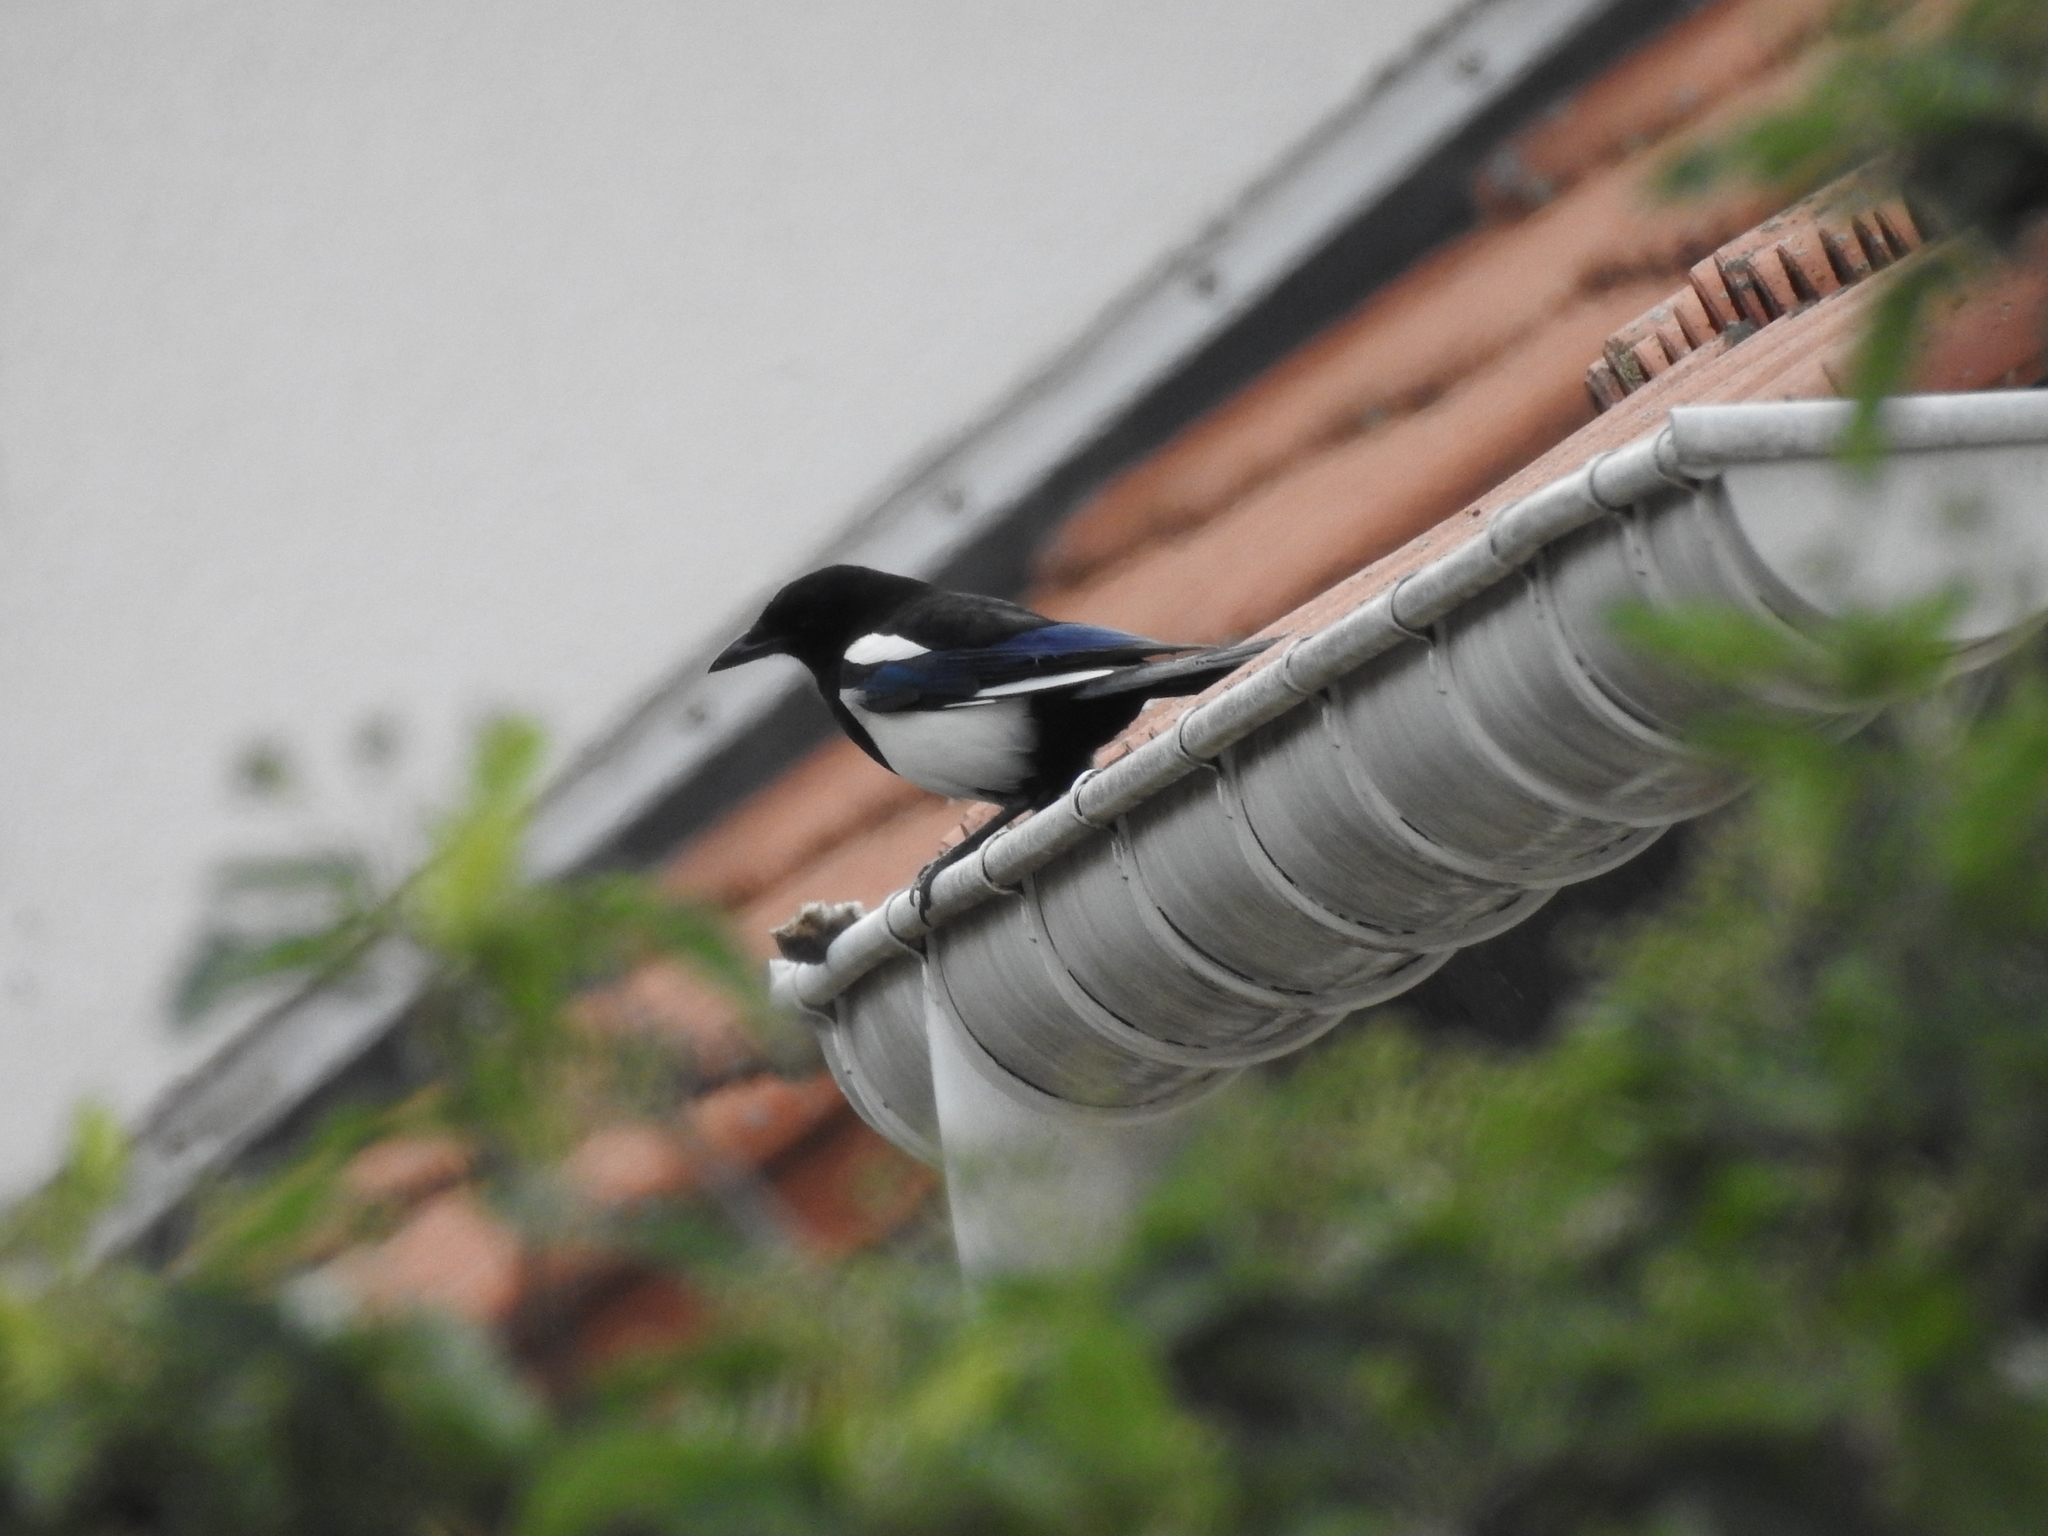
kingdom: Animalia
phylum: Chordata
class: Aves
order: Passeriformes
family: Corvidae
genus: Pica
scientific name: Pica pica
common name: Eurasian magpie
